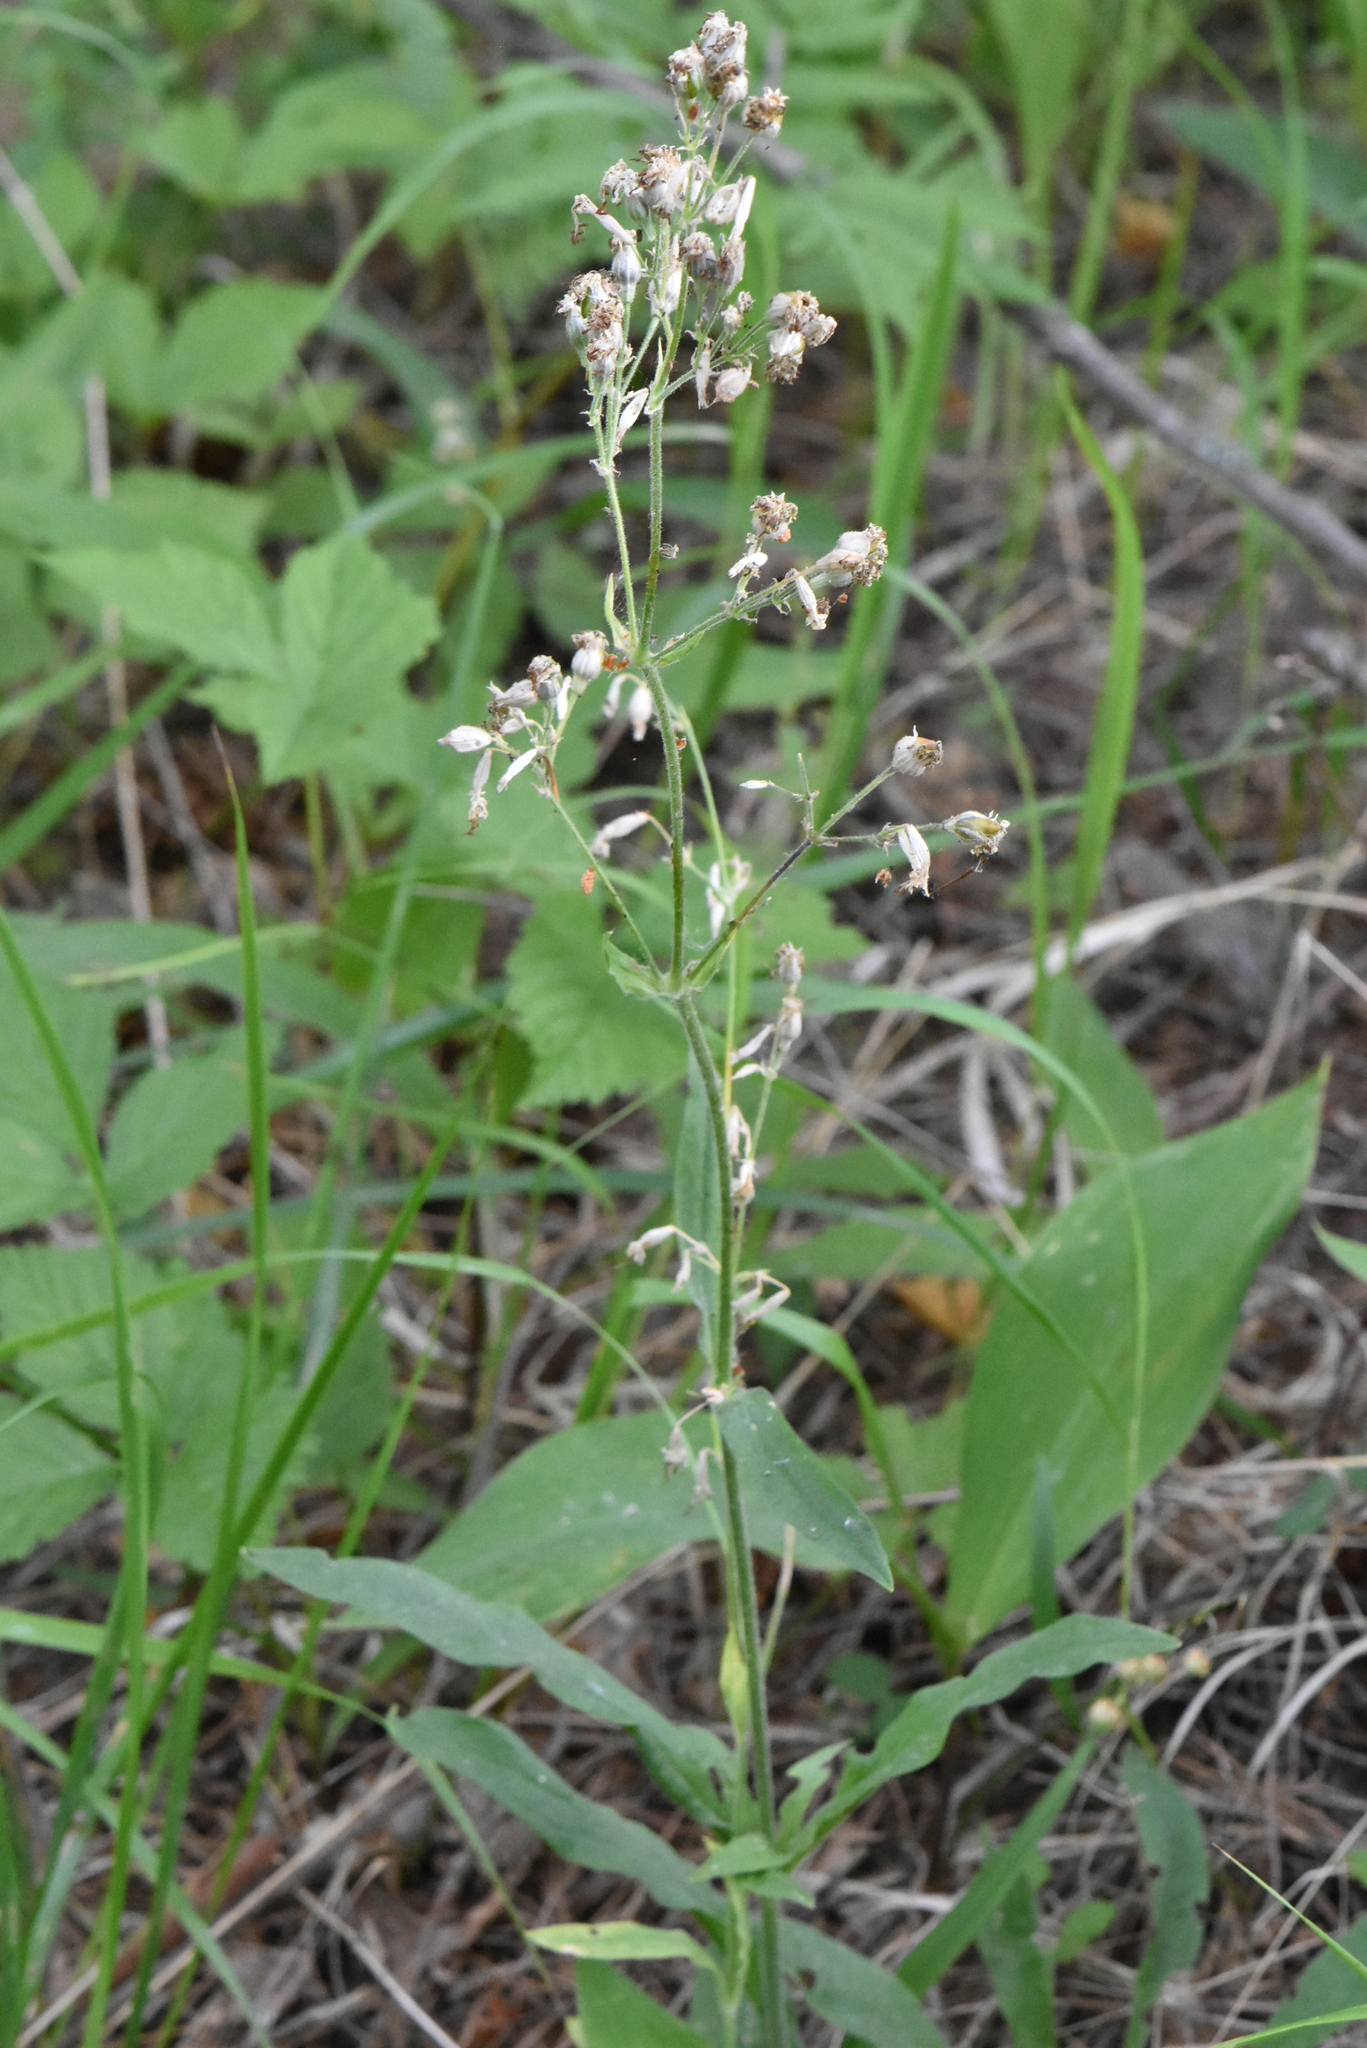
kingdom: Plantae
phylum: Tracheophyta
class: Magnoliopsida
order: Caryophyllales
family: Caryophyllaceae
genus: Silene
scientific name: Silene nutans
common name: Nottingham catchfly
